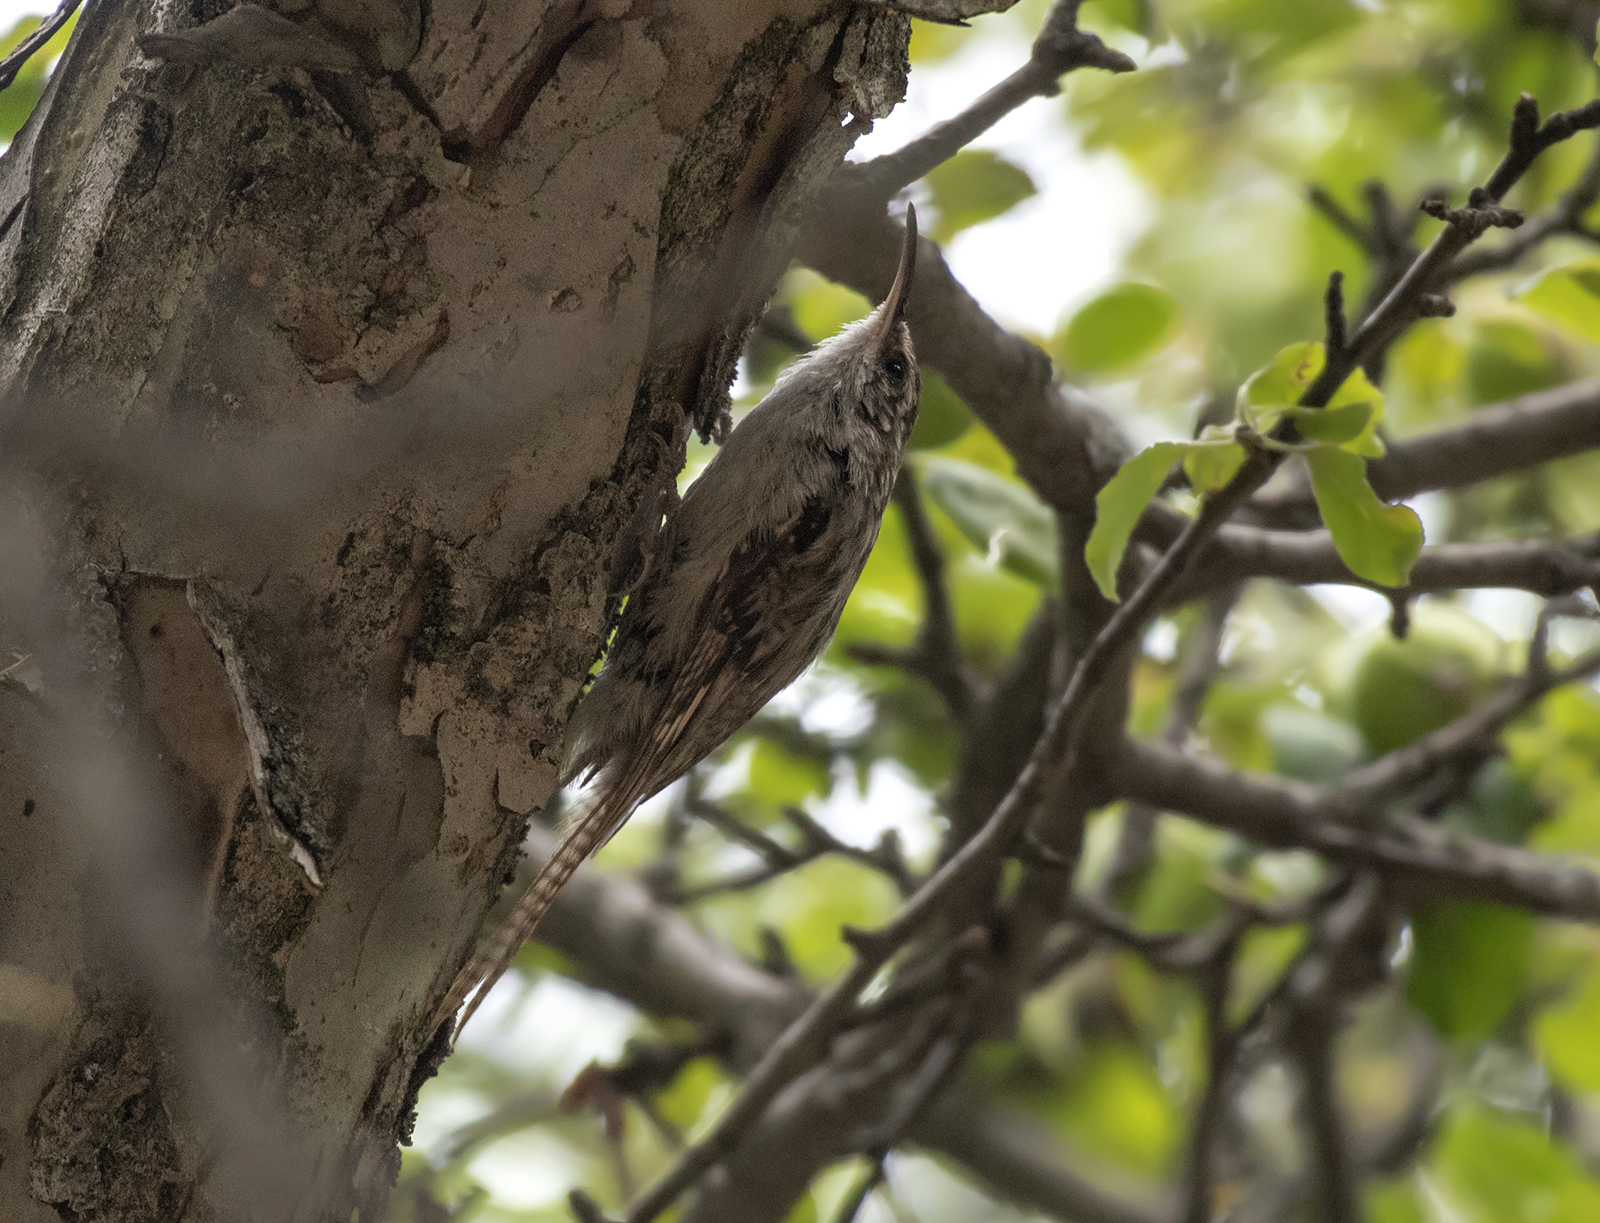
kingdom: Animalia
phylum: Chordata
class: Aves
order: Passeriformes
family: Certhiidae
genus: Certhia
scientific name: Certhia himalayana
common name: Bar-tailed treecreeper
